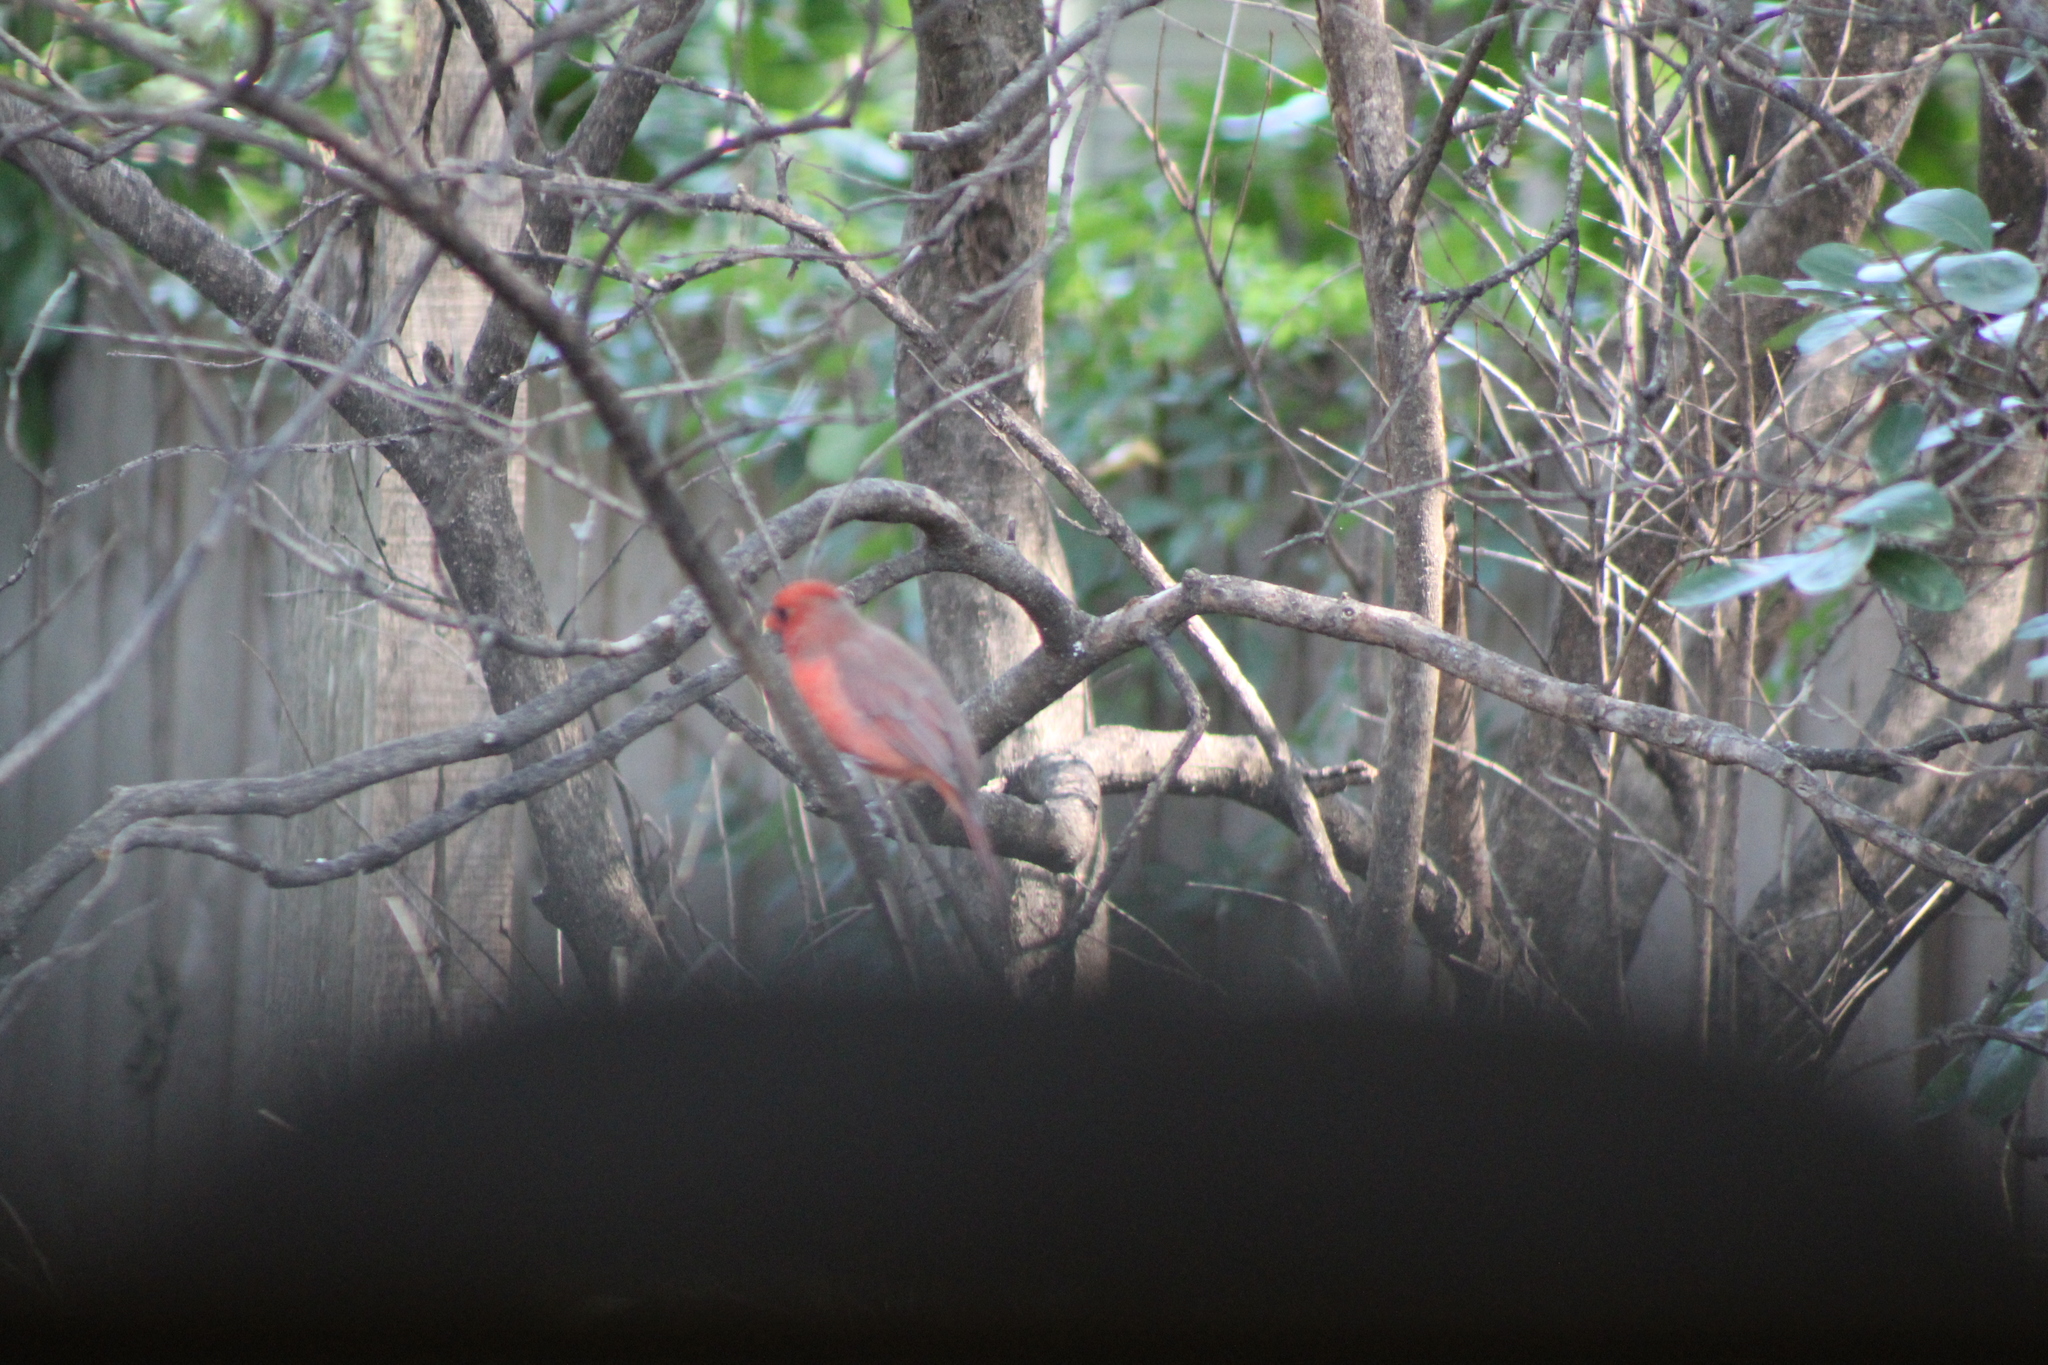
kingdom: Animalia
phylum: Chordata
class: Aves
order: Passeriformes
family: Cardinalidae
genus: Cardinalis
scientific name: Cardinalis cardinalis
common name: Northern cardinal
